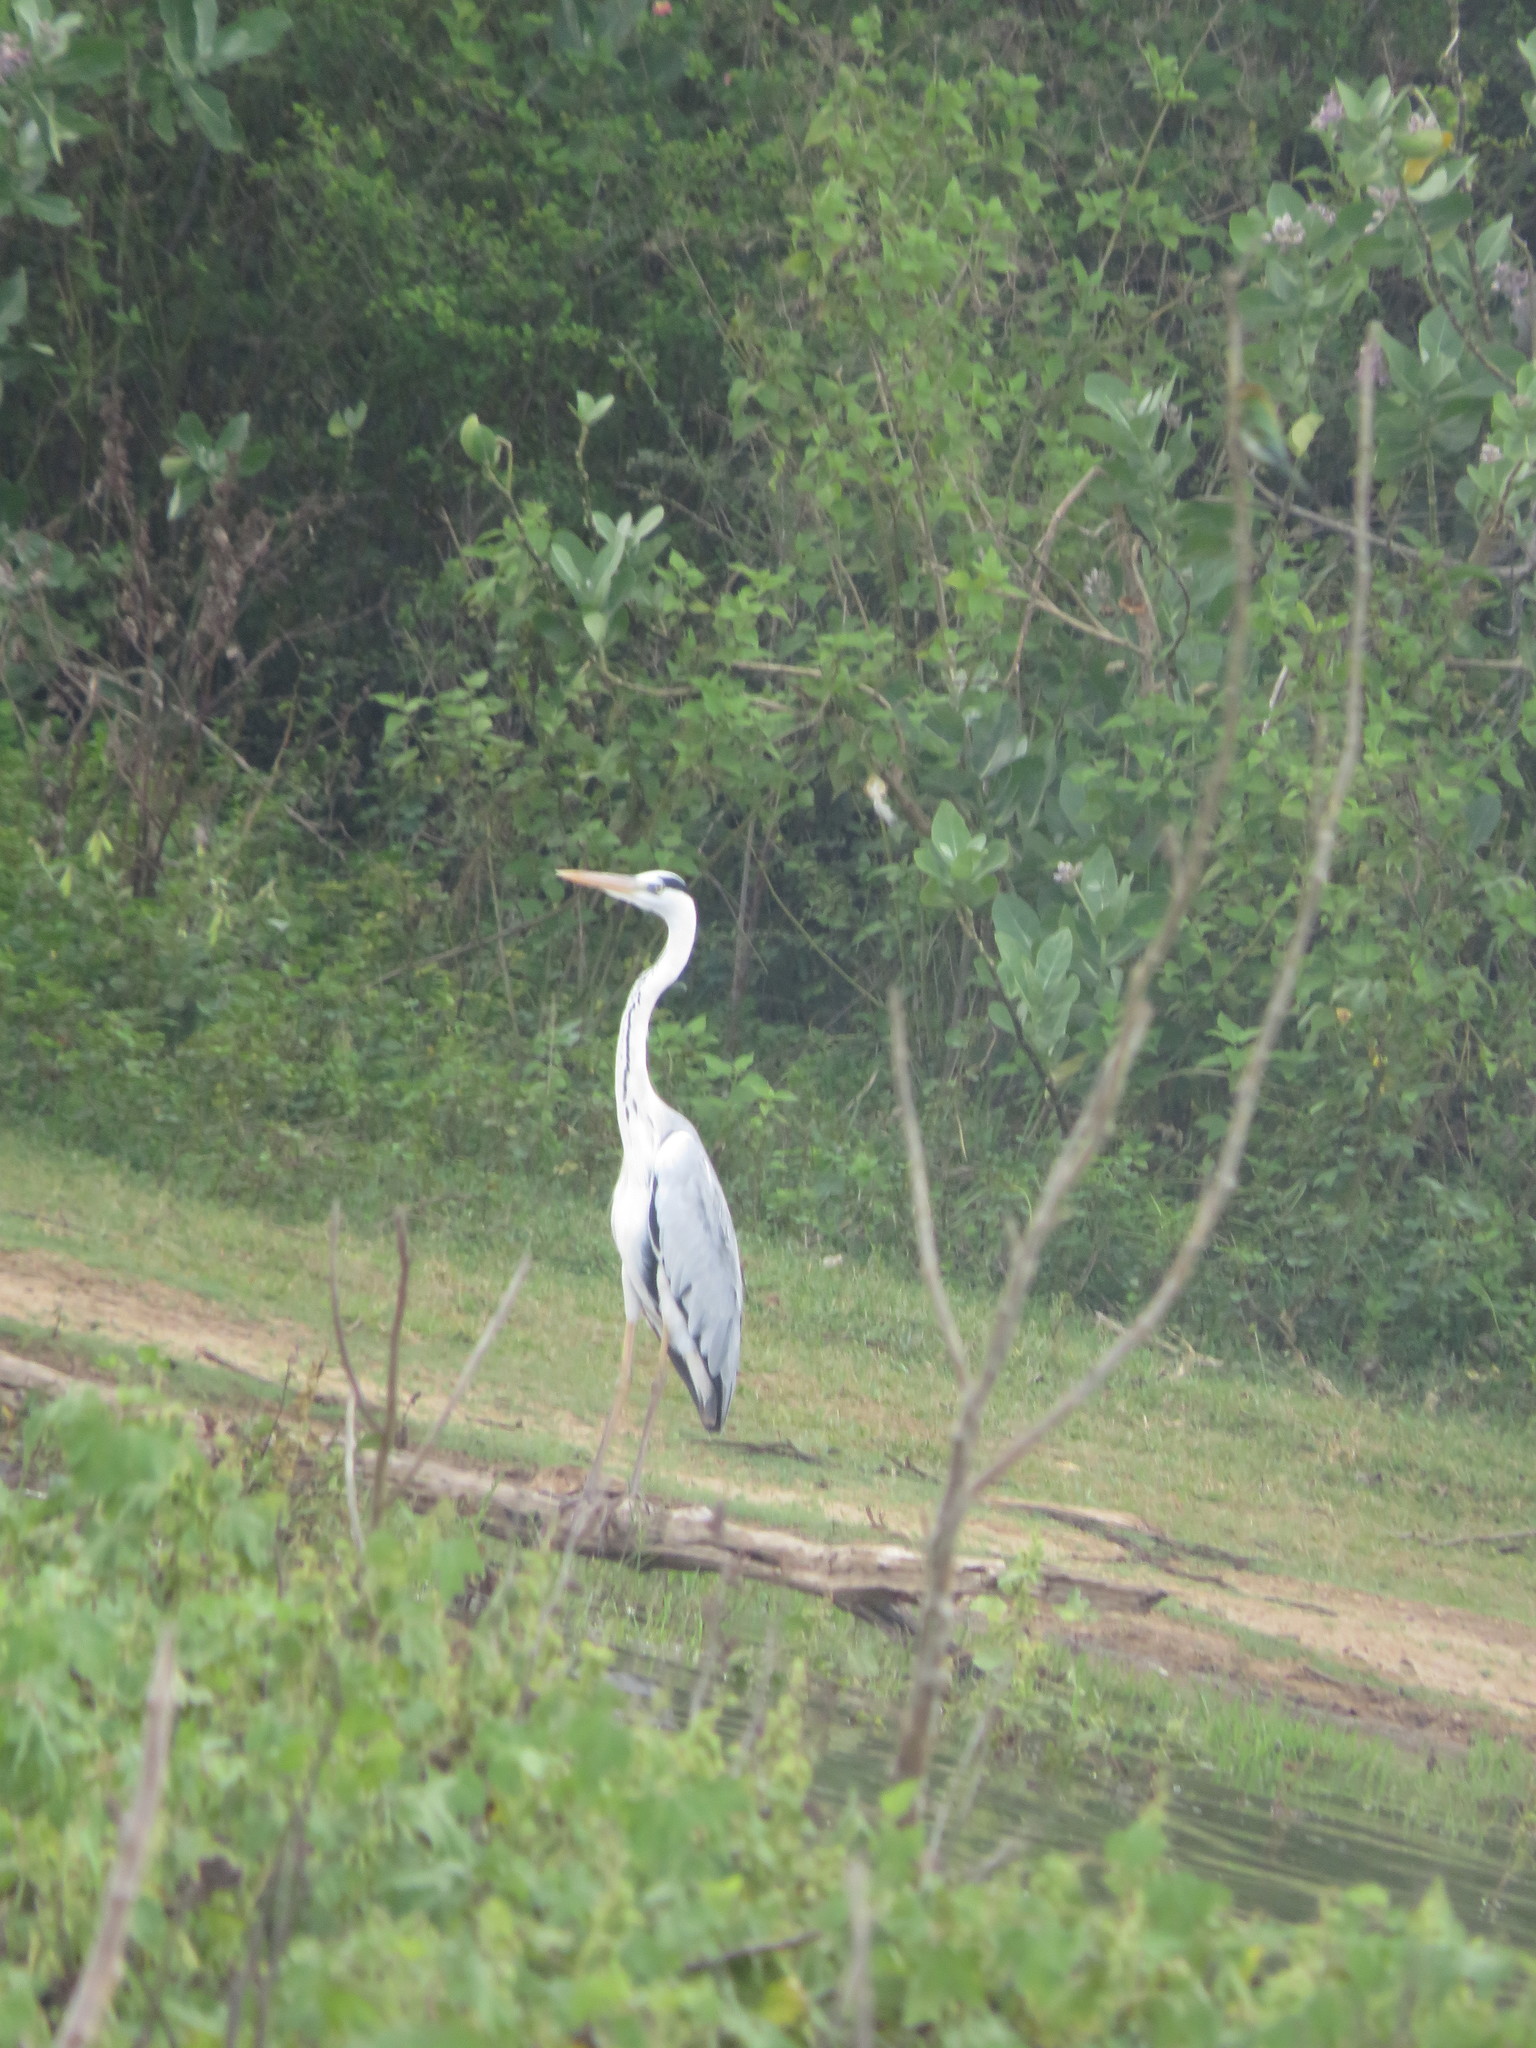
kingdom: Animalia
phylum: Chordata
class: Aves
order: Pelecaniformes
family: Ardeidae
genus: Ardea
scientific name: Ardea cinerea
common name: Grey heron
